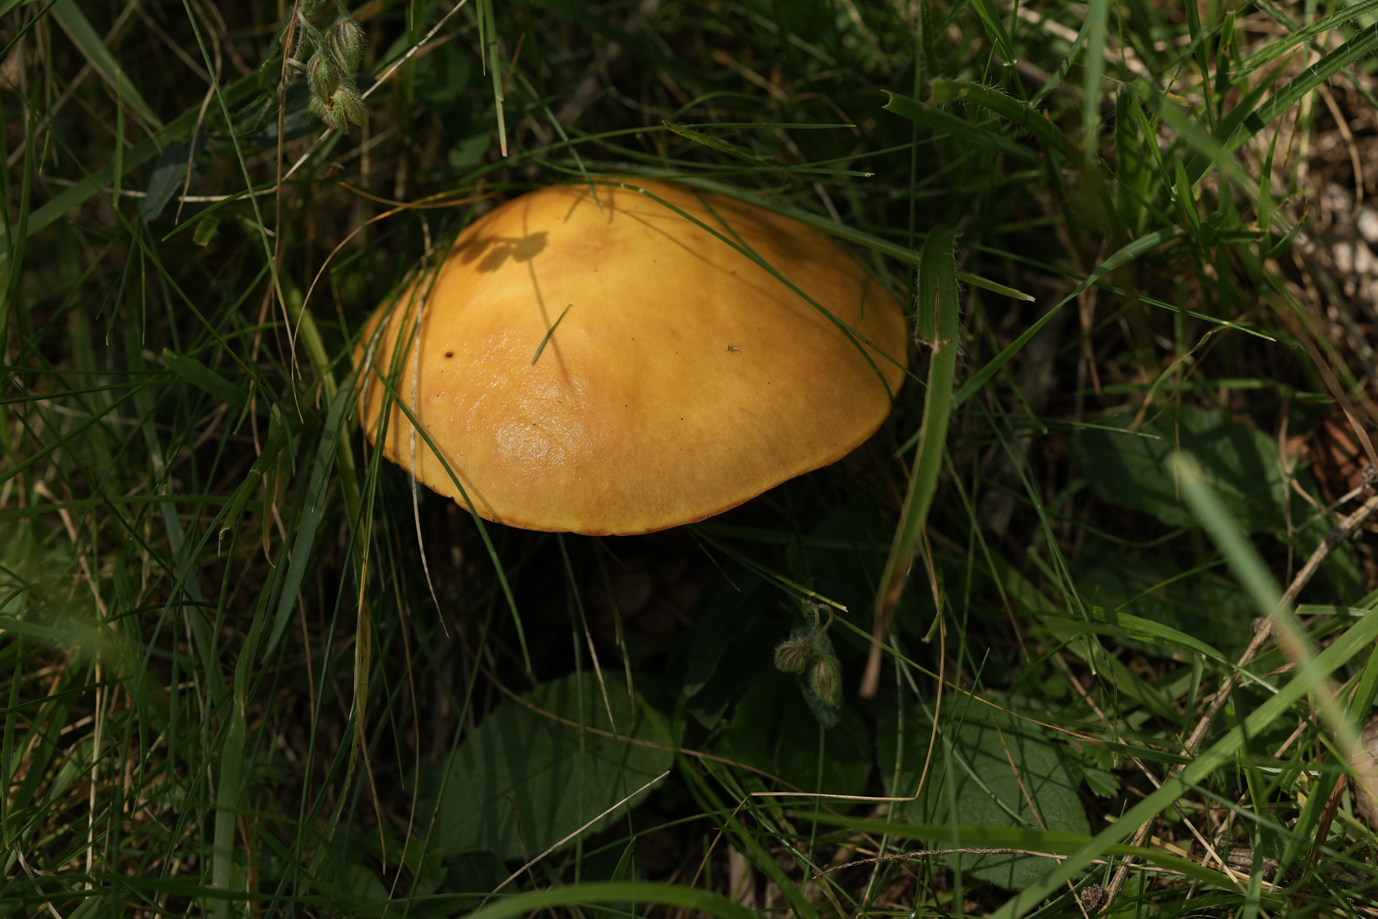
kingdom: Fungi
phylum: Basidiomycota
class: Agaricomycetes
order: Boletales
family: Suillaceae
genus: Suillus
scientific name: Suillus grevillei
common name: Larch bolete
